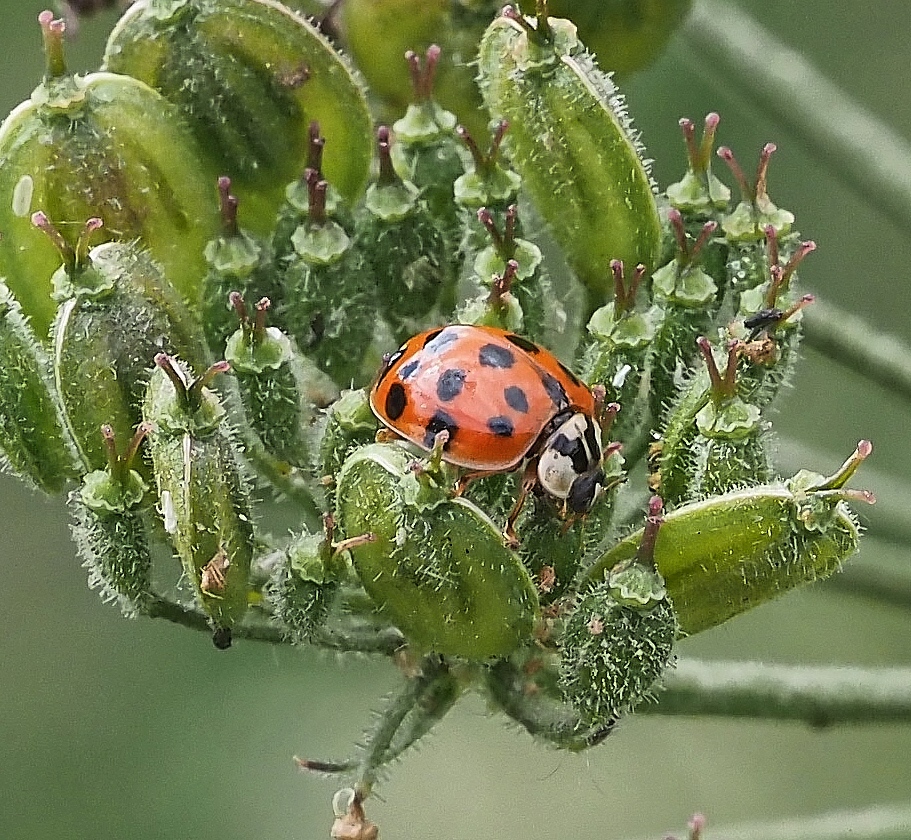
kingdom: Animalia
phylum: Arthropoda
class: Insecta
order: Coleoptera
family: Coccinellidae
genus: Harmonia
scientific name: Harmonia axyridis
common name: Harlequin ladybird
